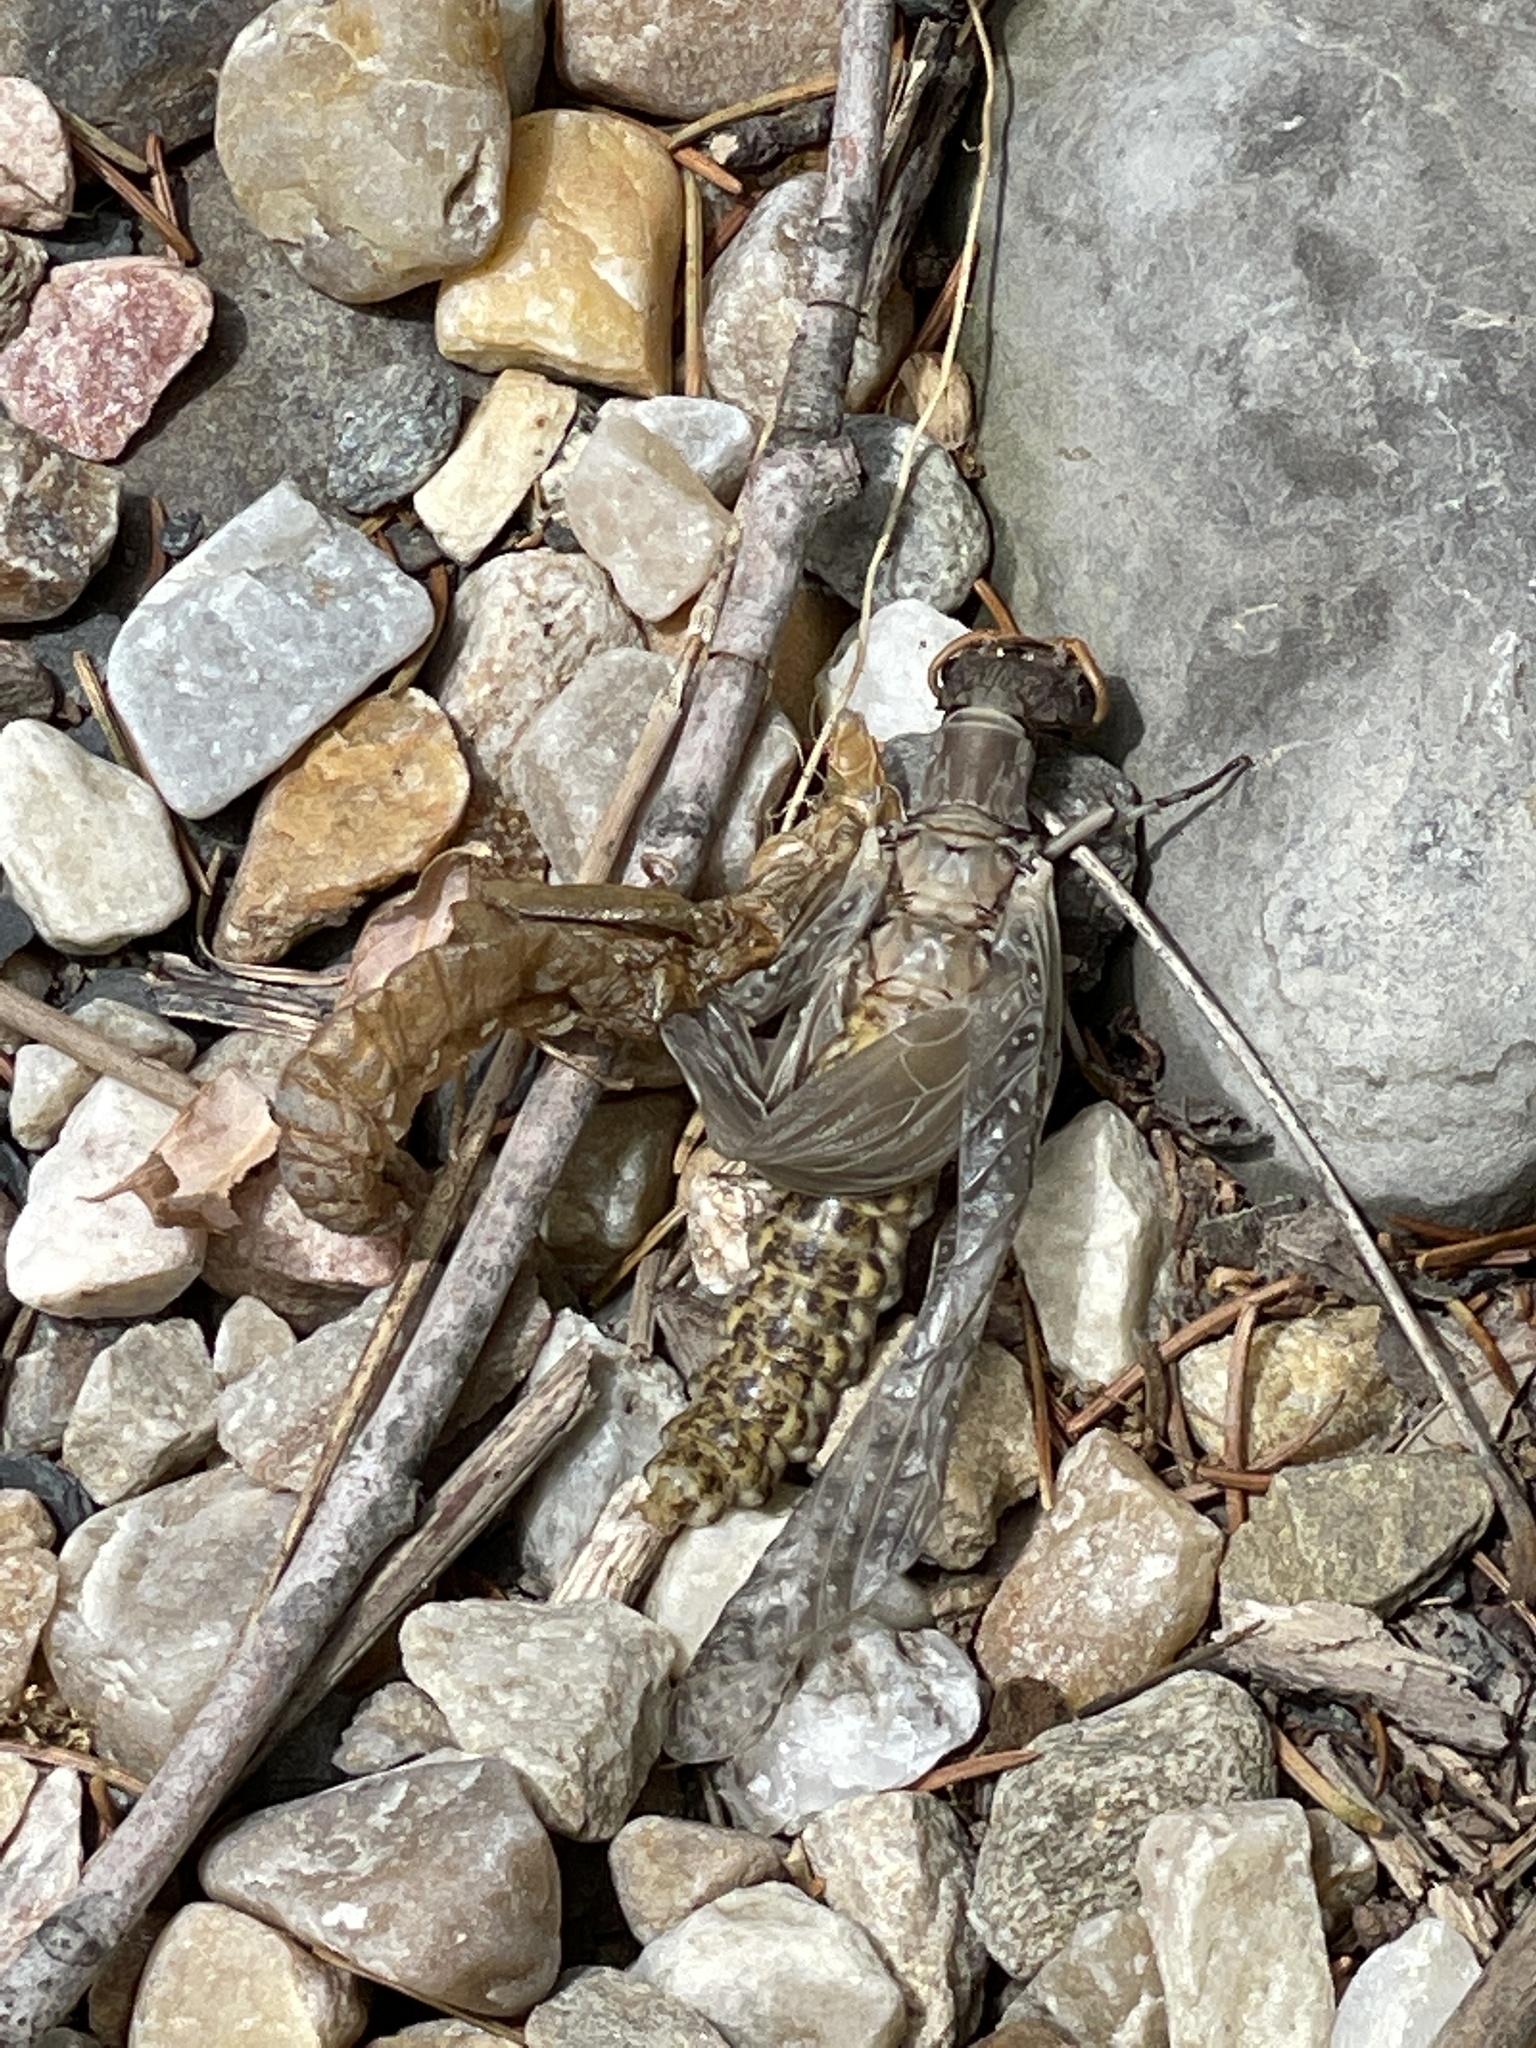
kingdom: Animalia
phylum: Arthropoda
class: Insecta
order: Ephemeroptera
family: Ephemeridae
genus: Hexagenia
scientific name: Hexagenia bilineata
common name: Emergent mayfly
